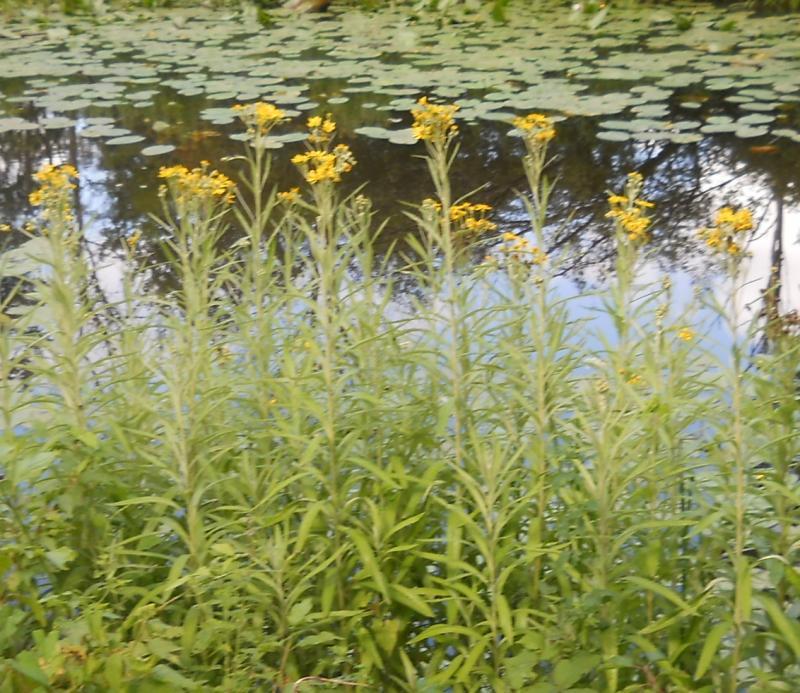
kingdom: Plantae
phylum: Tracheophyta
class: Magnoliopsida
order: Asterales
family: Asteraceae
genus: Jacobaea
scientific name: Jacobaea paludosa
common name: Fen ragwort
